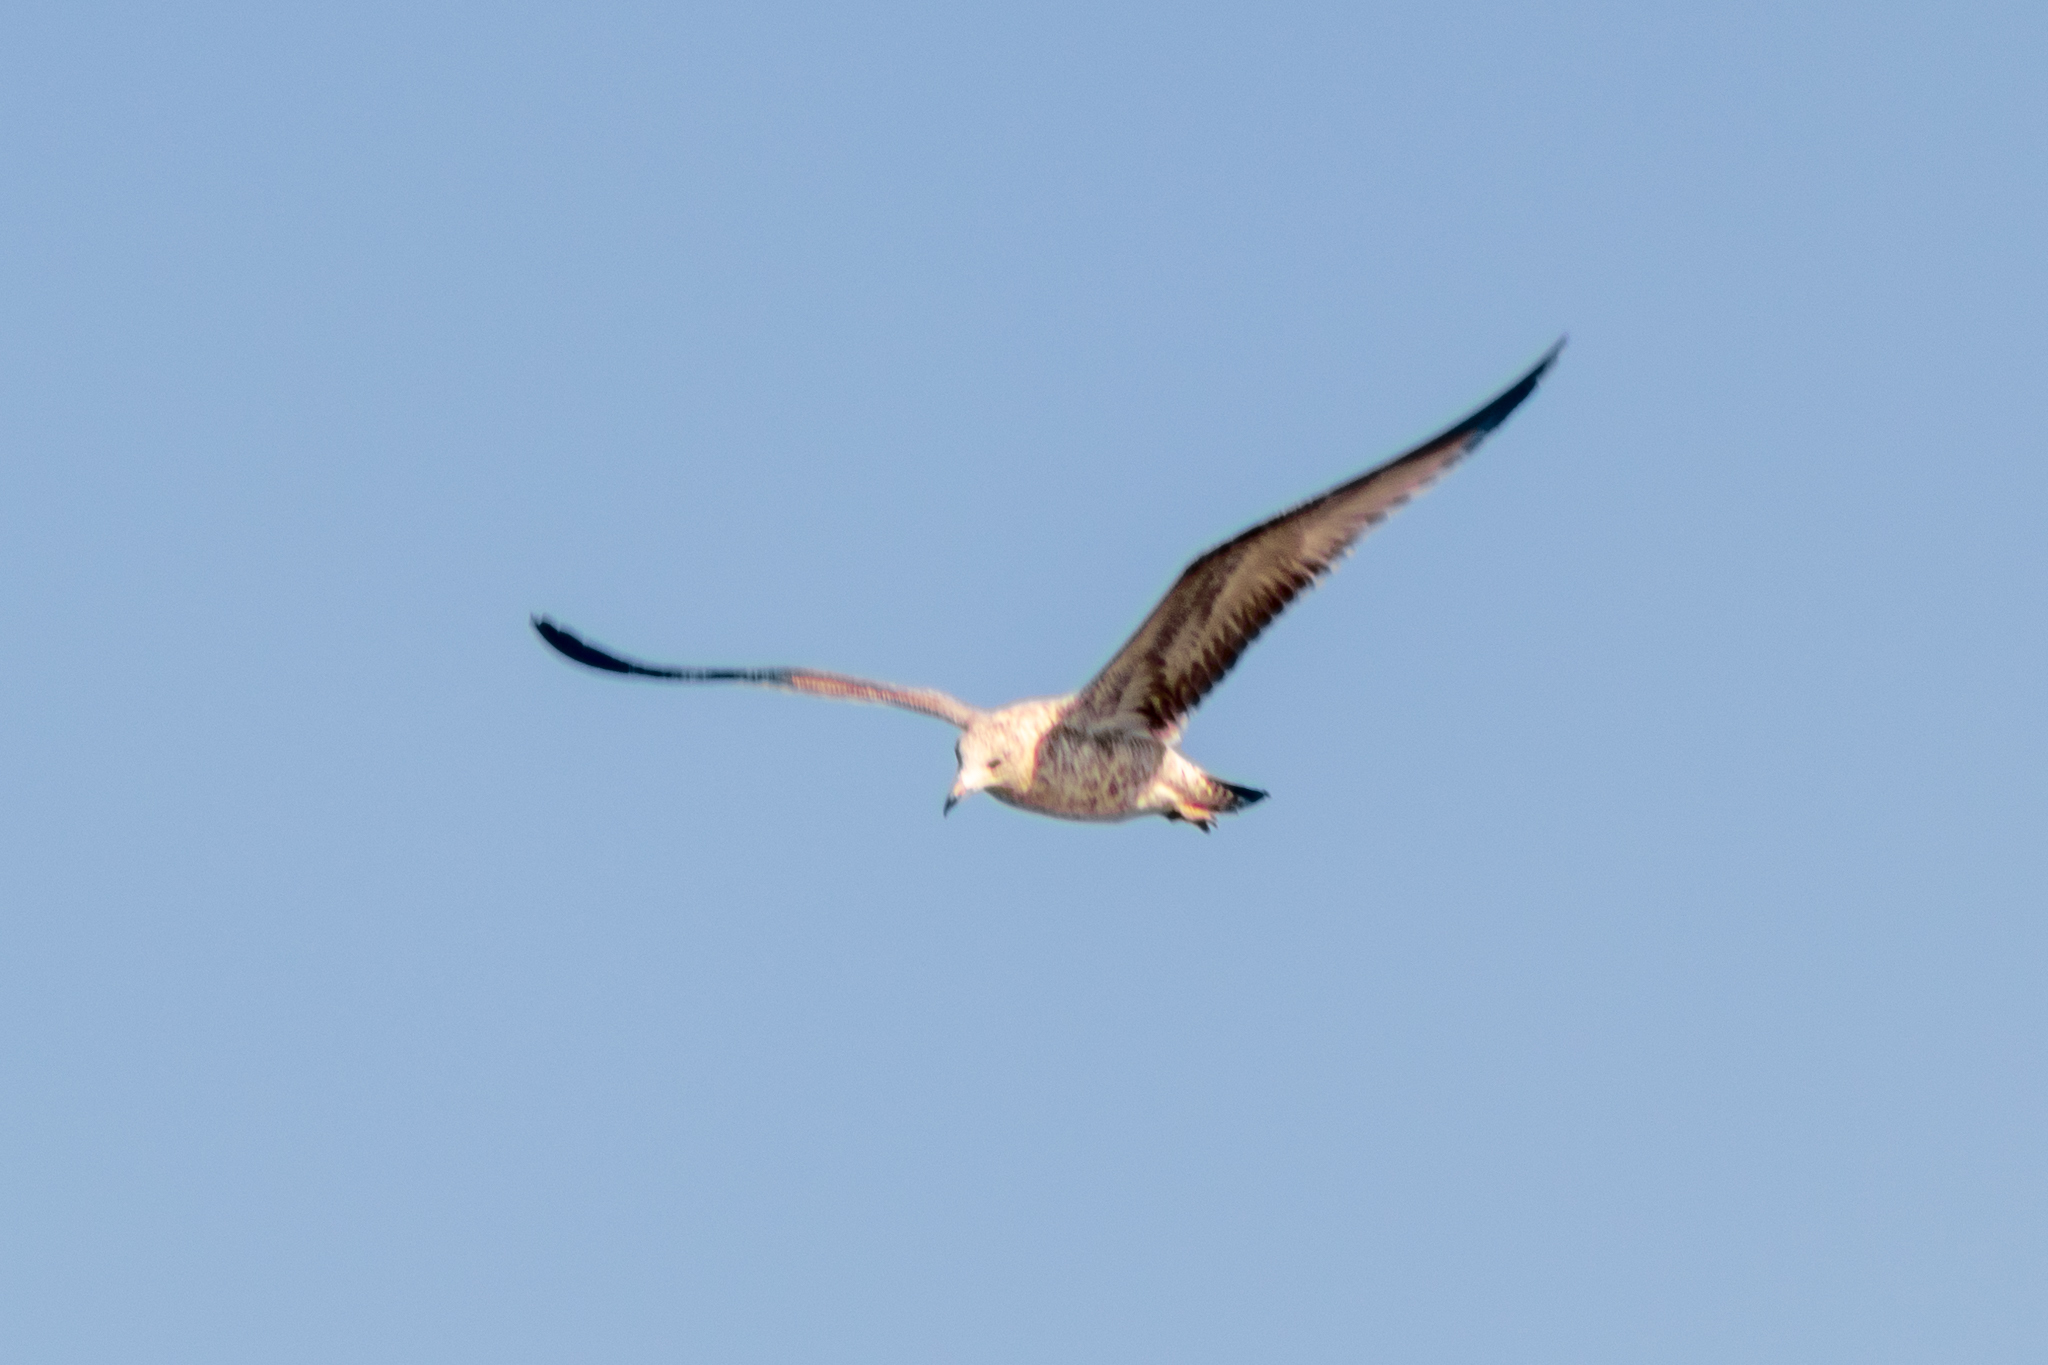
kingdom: Animalia
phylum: Chordata
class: Aves
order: Charadriiformes
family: Laridae
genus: Larus
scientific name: Larus delawarensis
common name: Ring-billed gull
